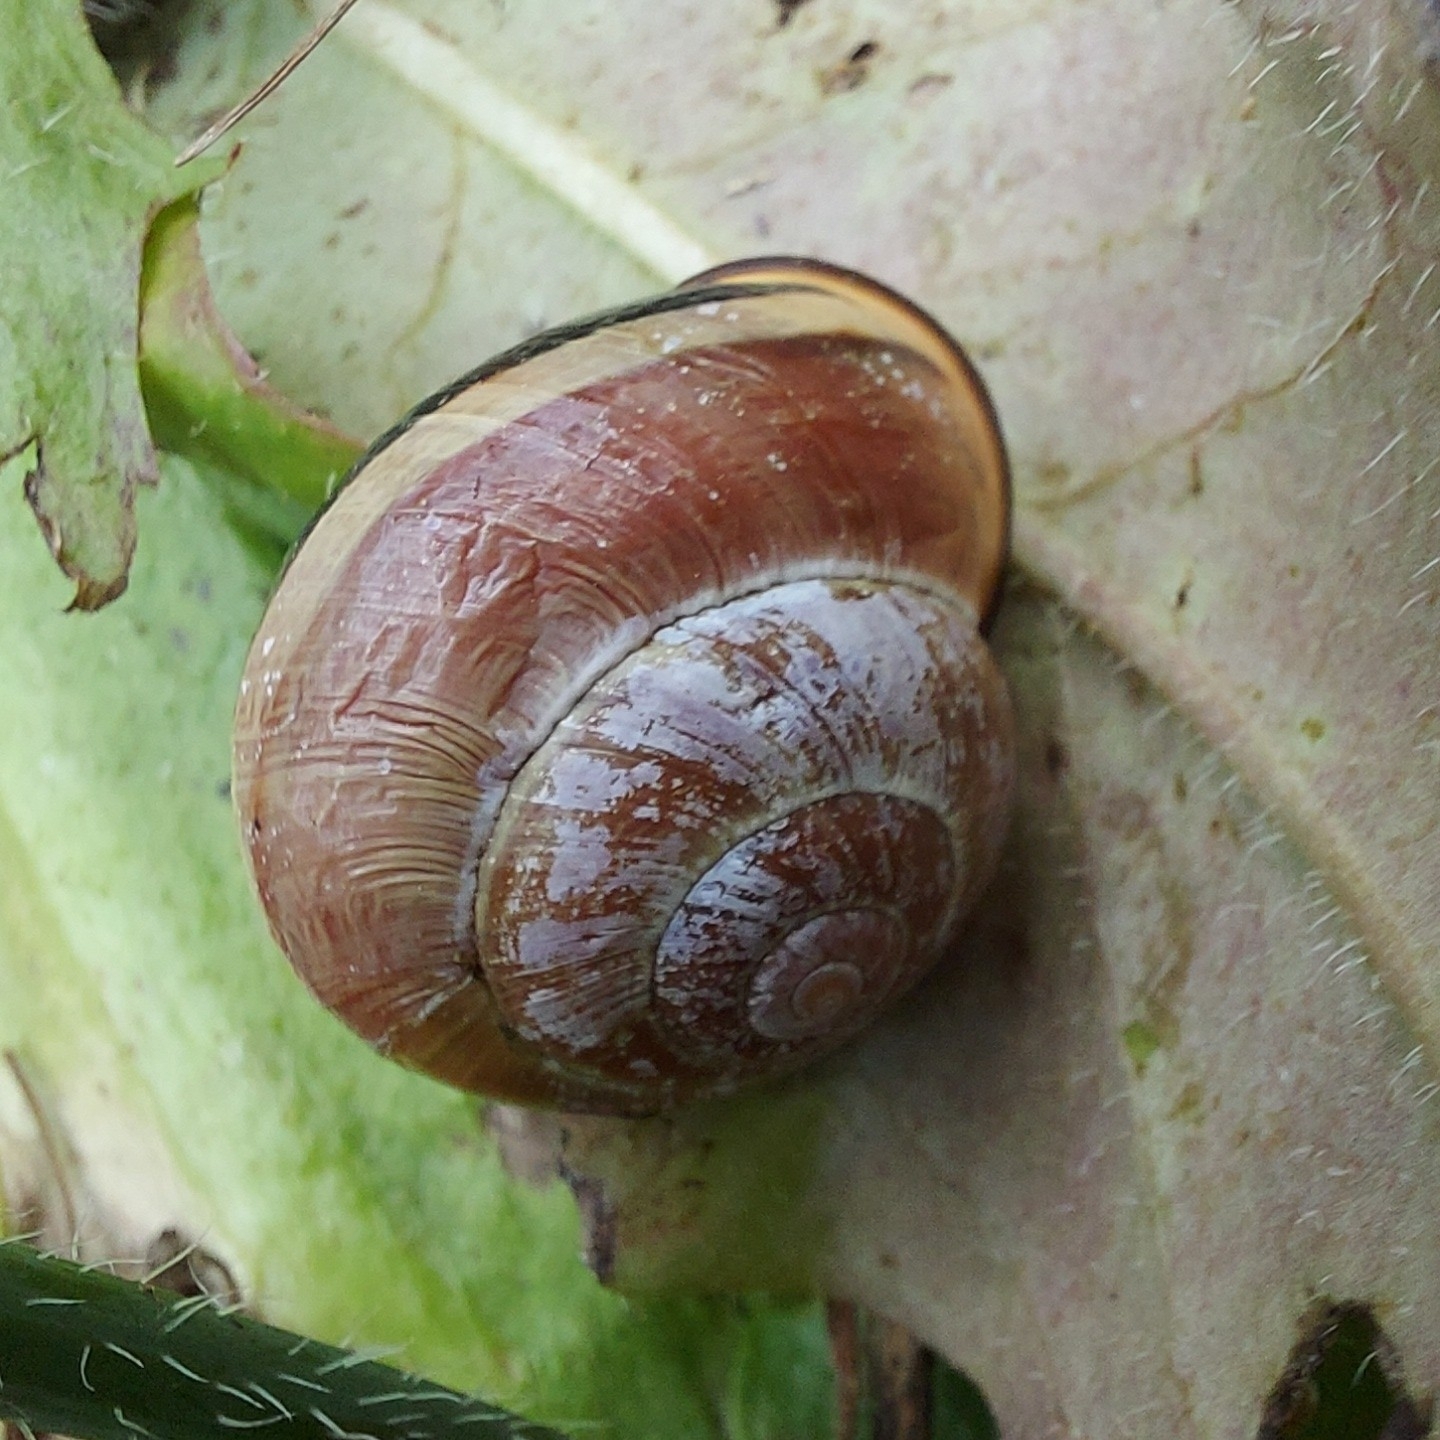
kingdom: Animalia
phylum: Mollusca
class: Gastropoda
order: Stylommatophora
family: Helicidae
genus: Cepaea
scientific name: Cepaea nemoralis
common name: Grovesnail
